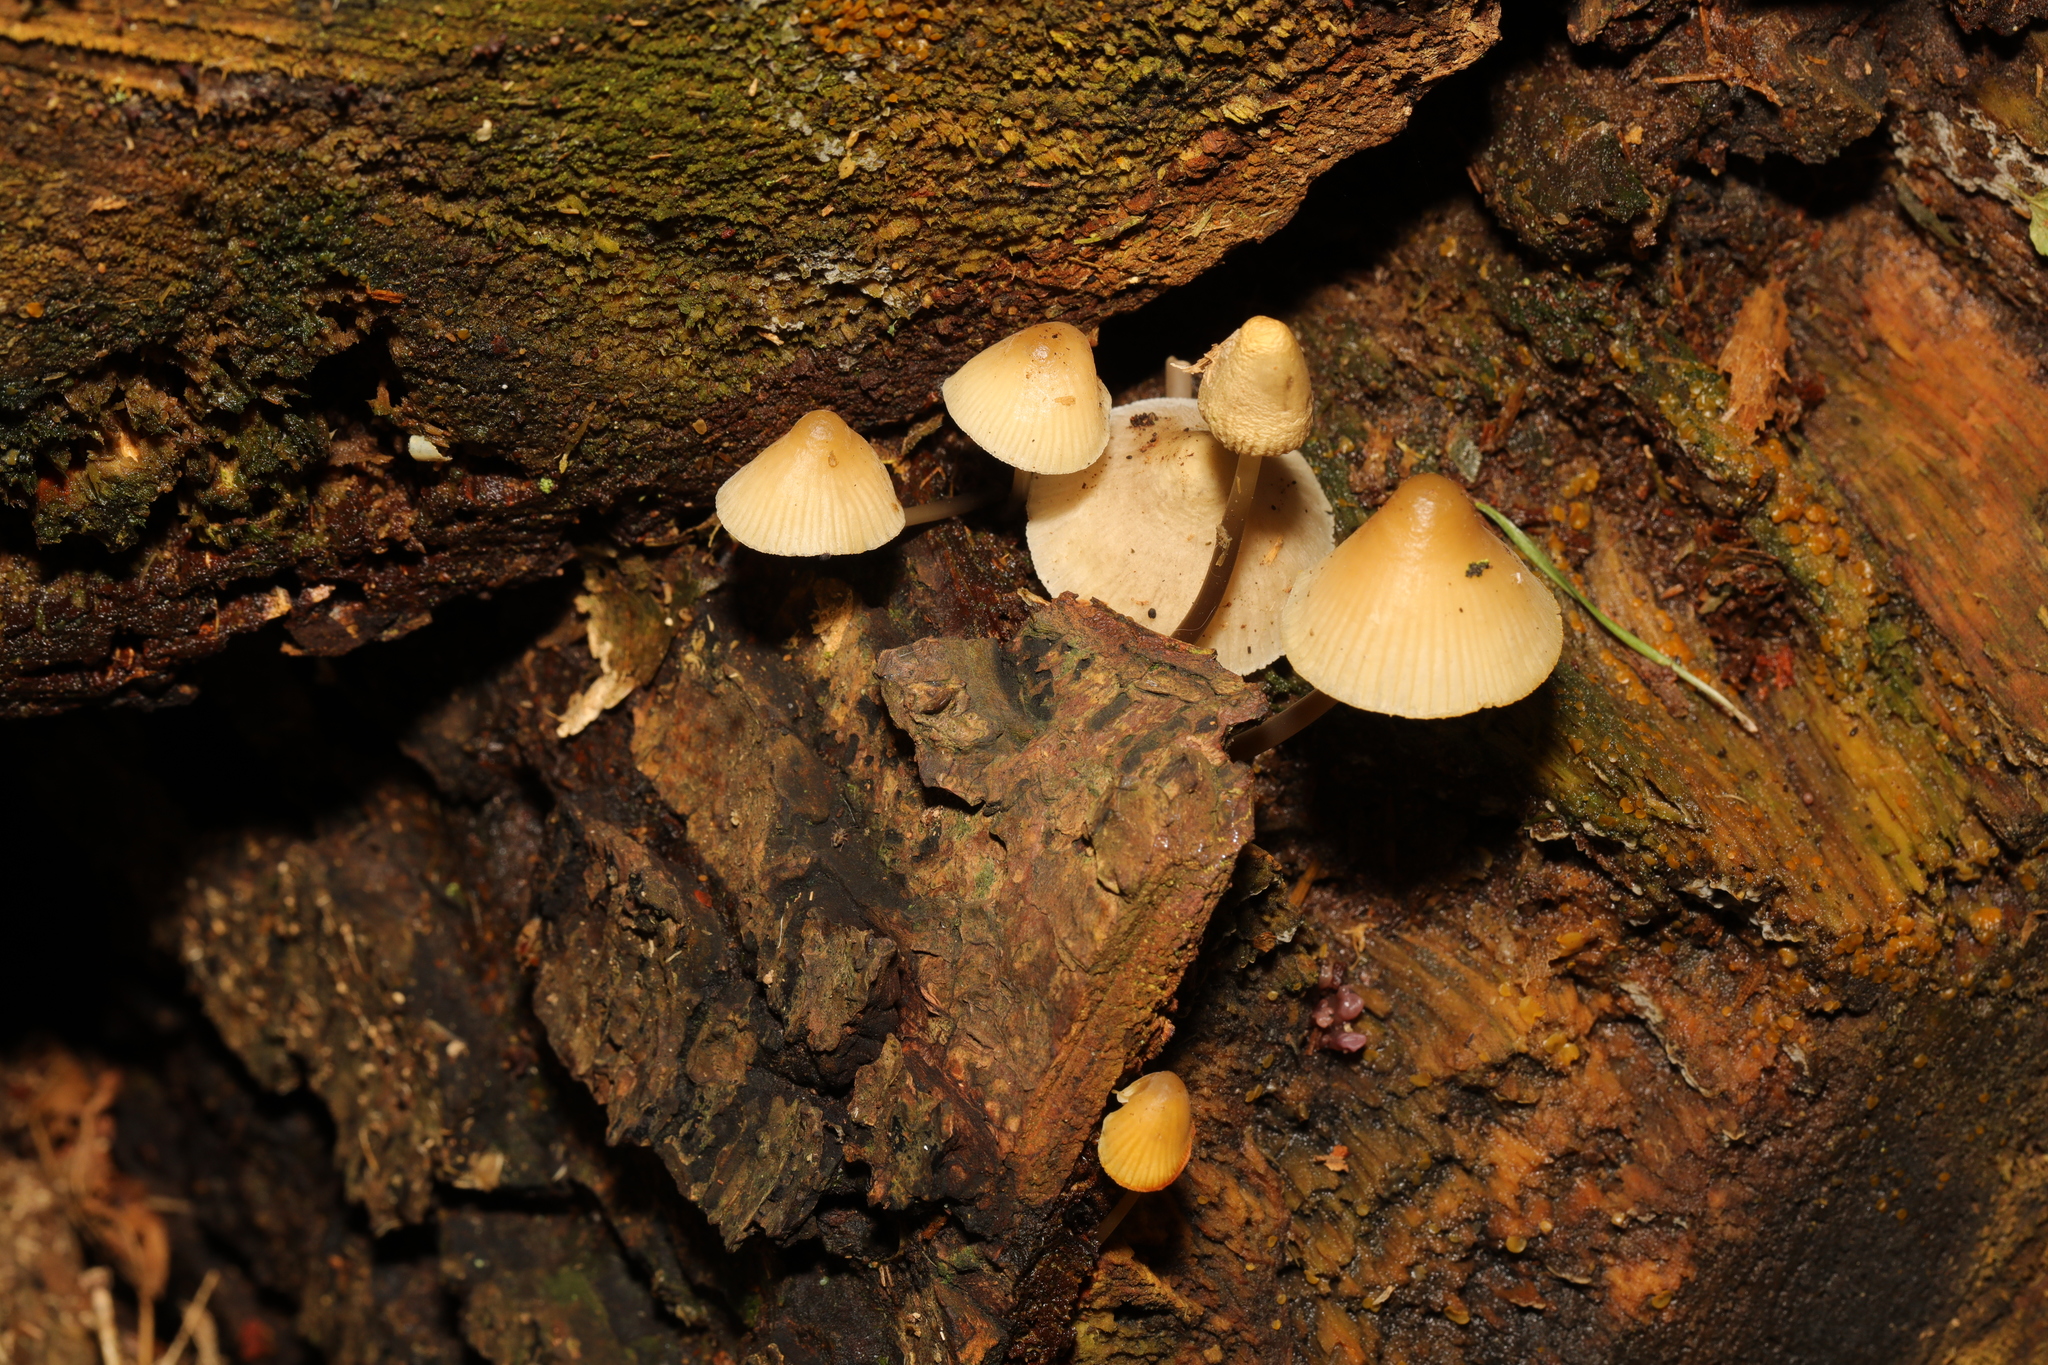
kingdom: Fungi
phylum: Basidiomycota
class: Agaricomycetes
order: Agaricales
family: Mycenaceae
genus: Mycena
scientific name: Mycena
